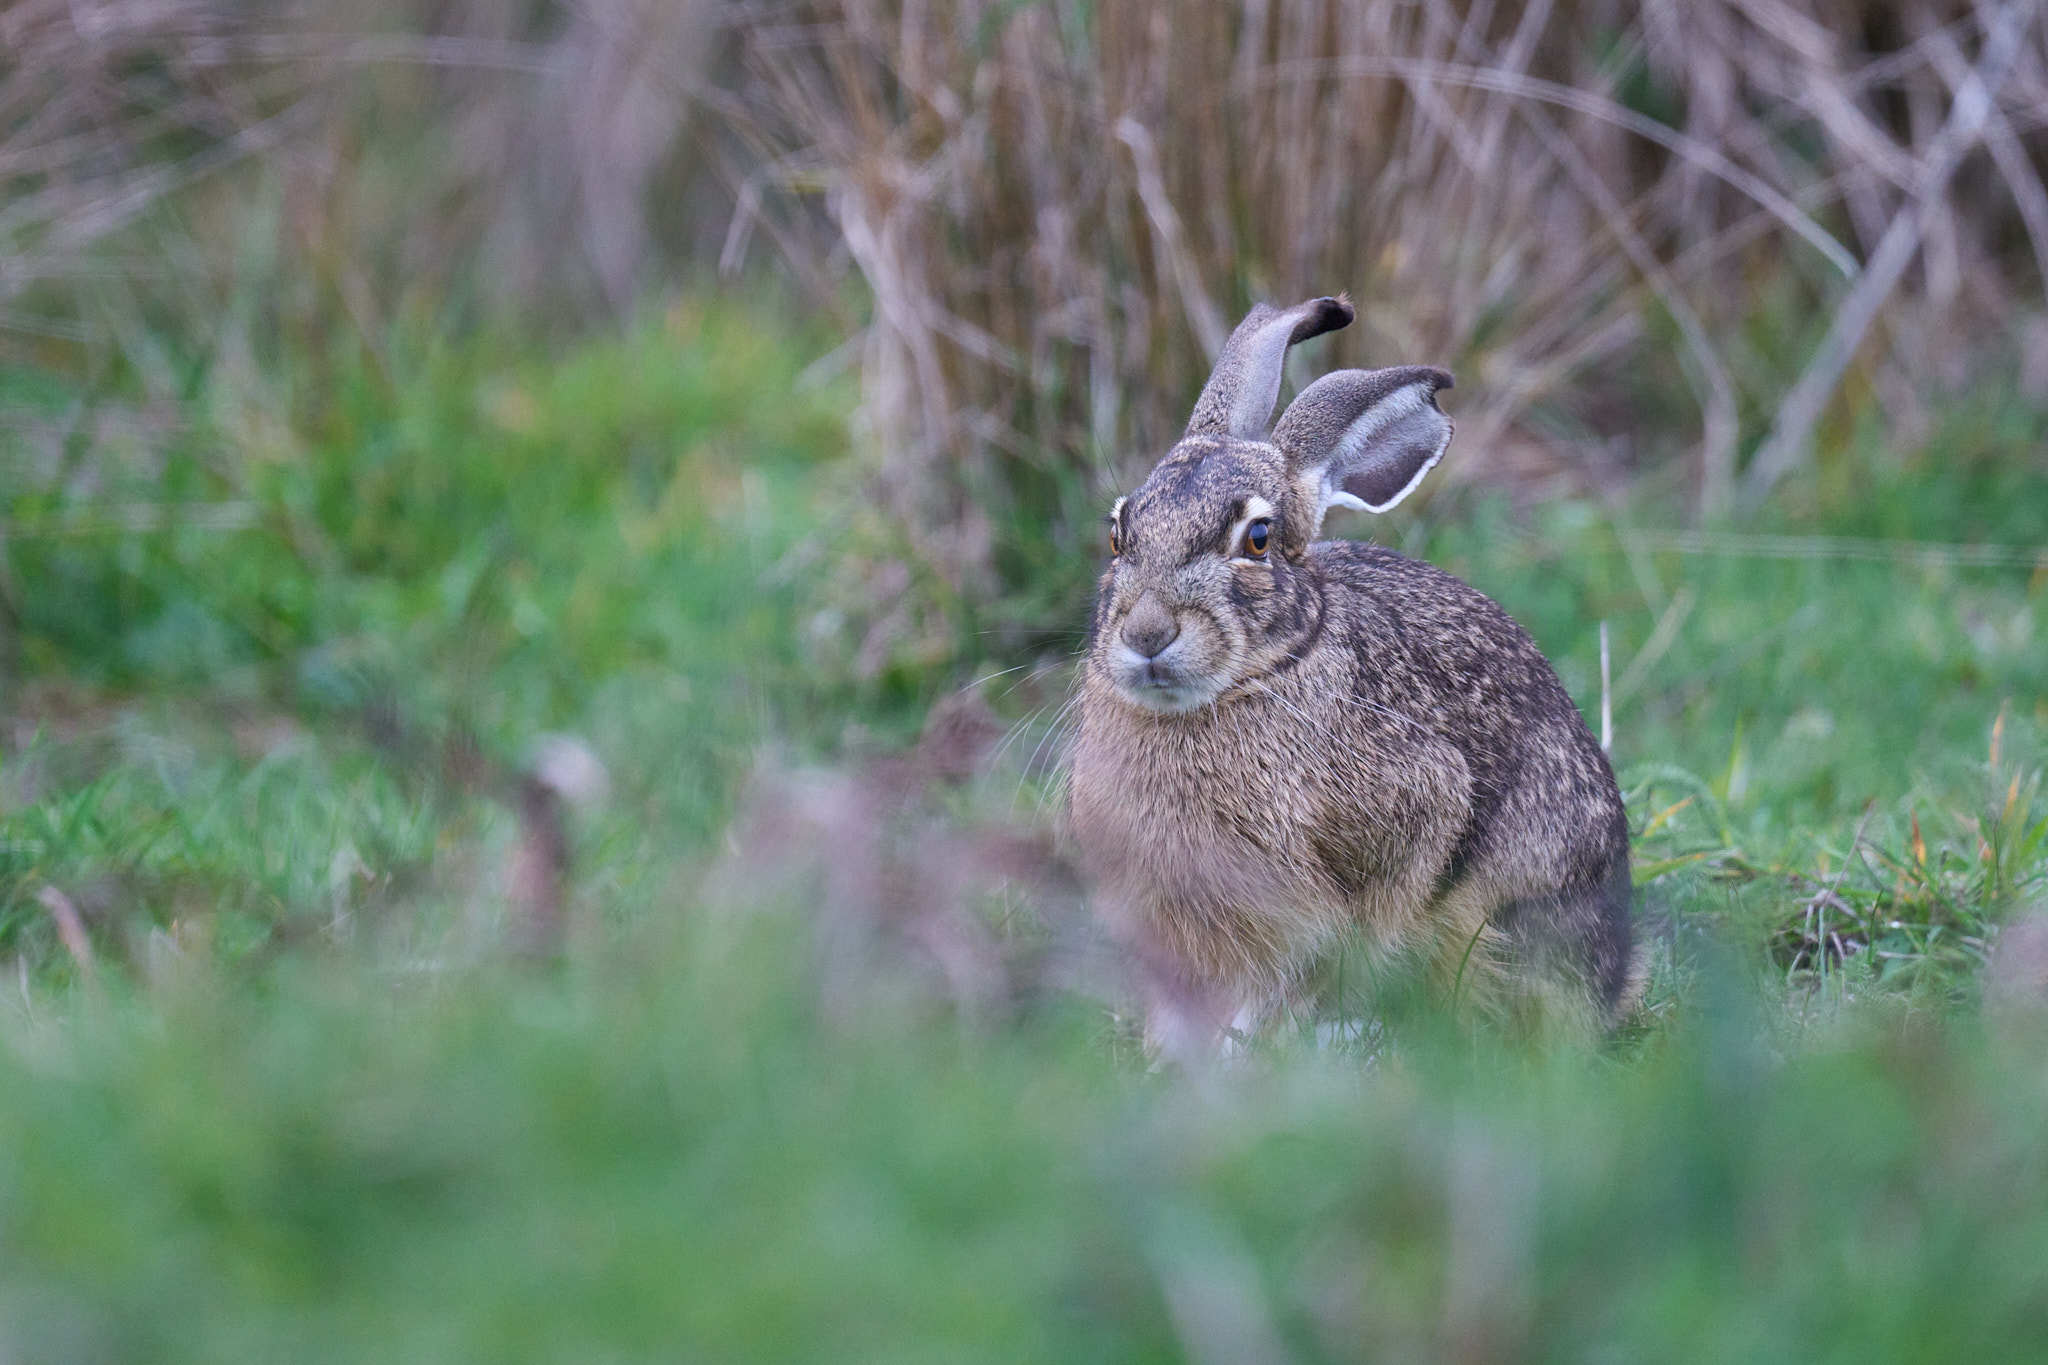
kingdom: Animalia
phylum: Chordata
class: Mammalia
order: Lagomorpha
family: Leporidae
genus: Lepus
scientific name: Lepus californicus
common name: Black-tailed jackrabbit
